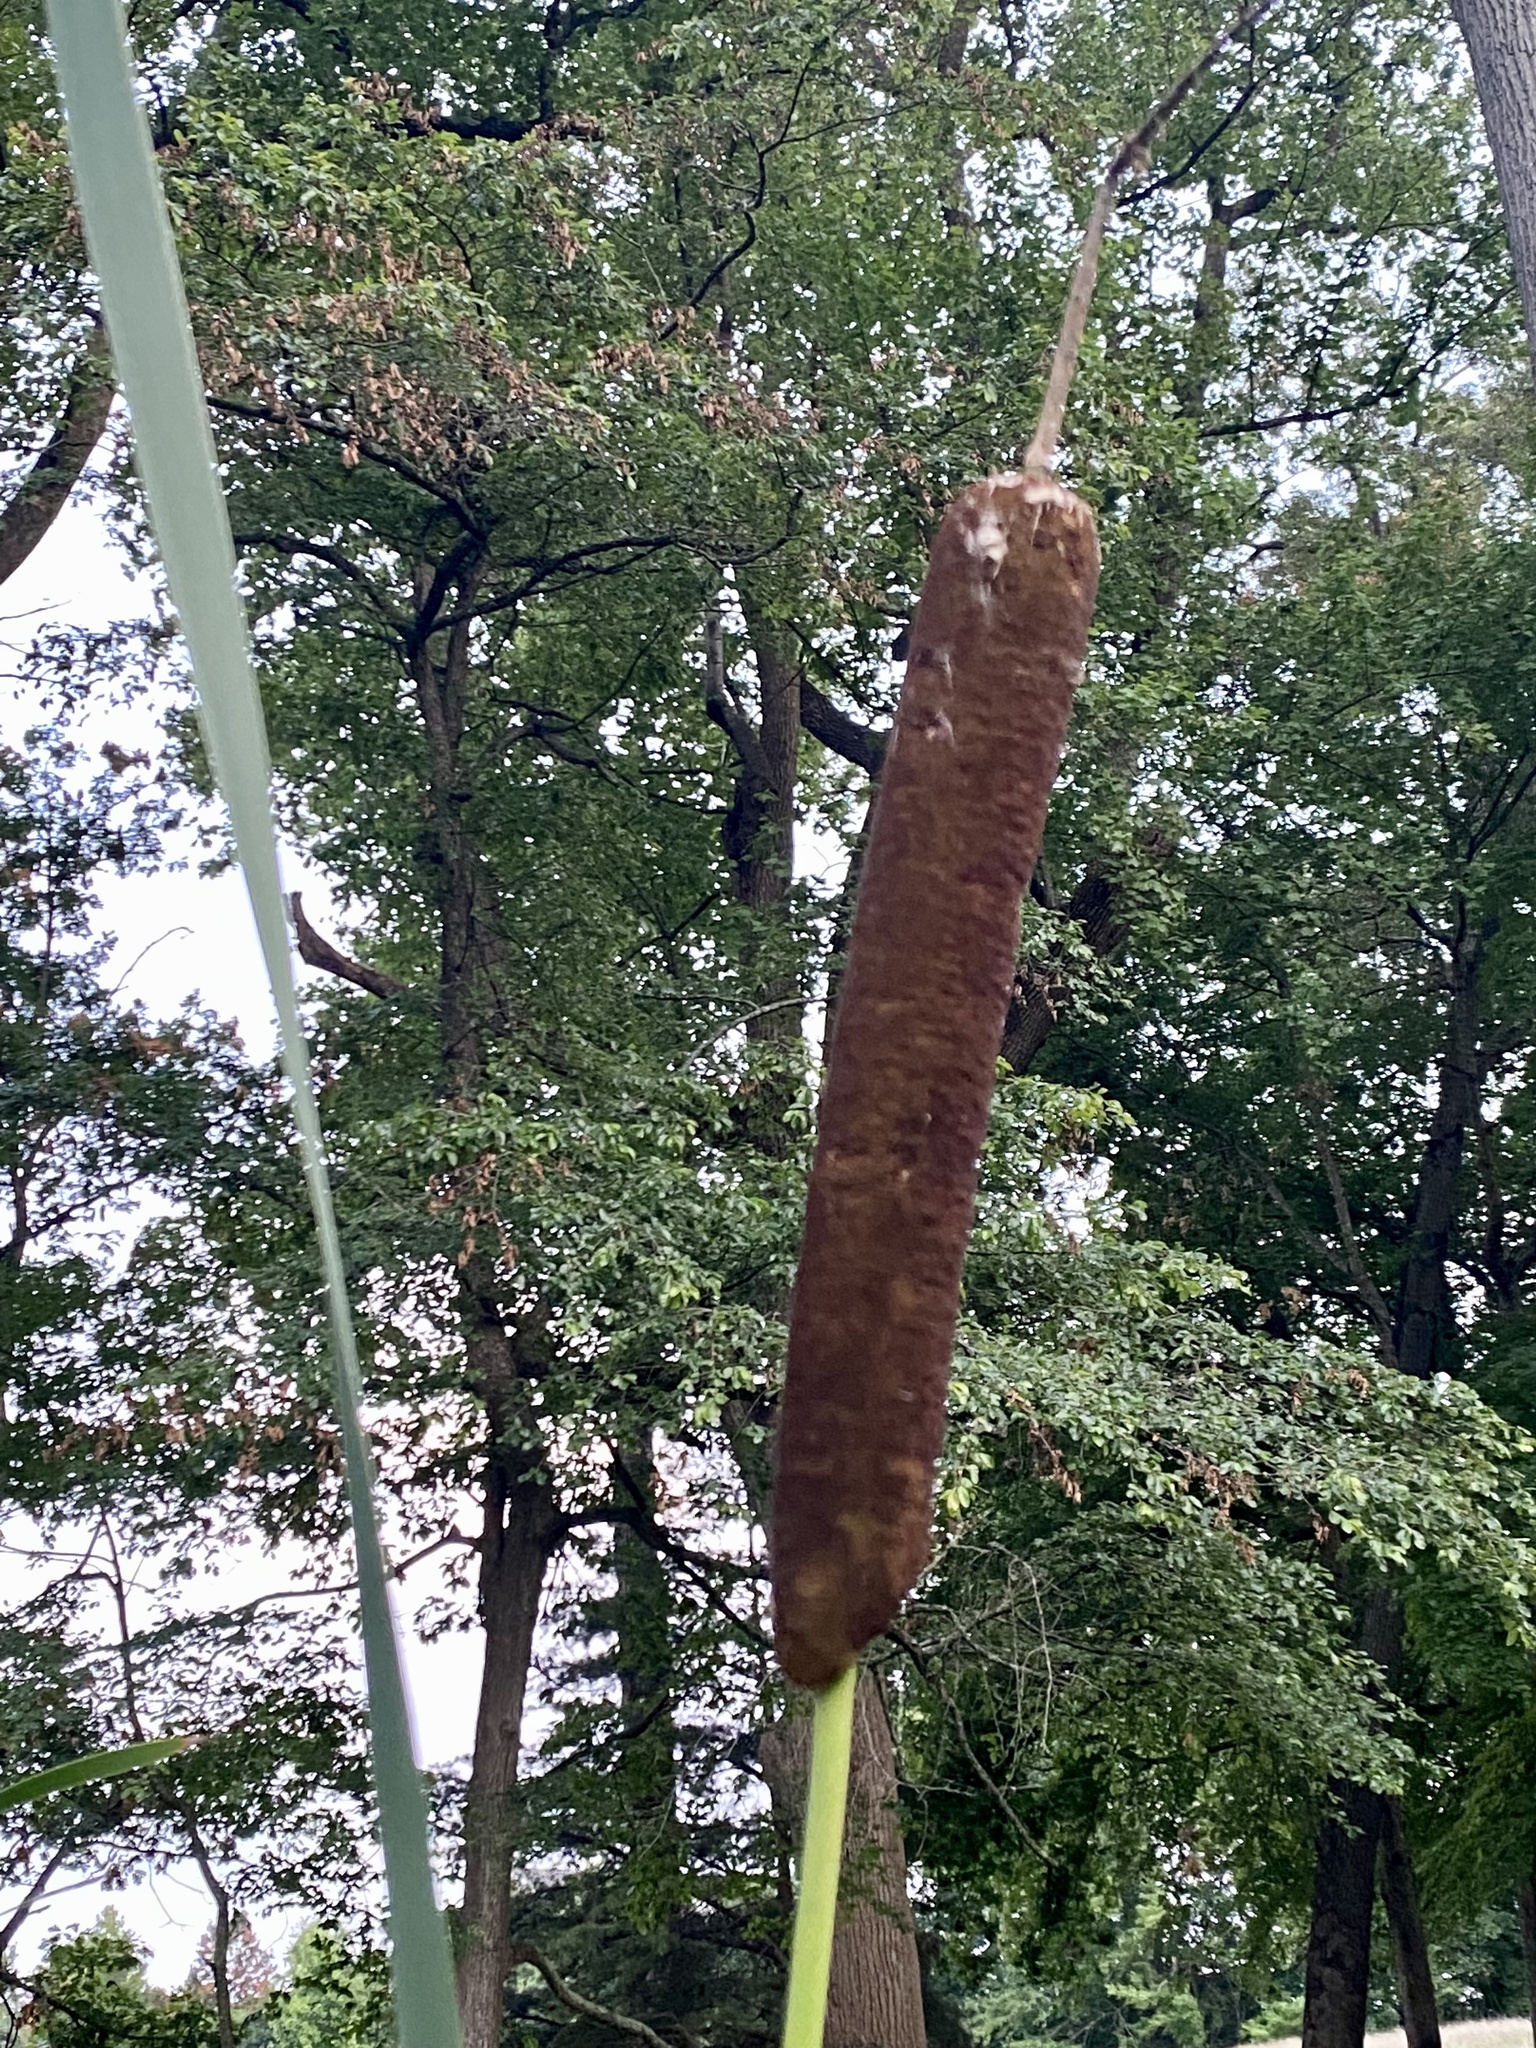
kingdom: Plantae
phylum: Tracheophyta
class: Liliopsida
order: Poales
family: Typhaceae
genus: Typha
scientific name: Typha latifolia
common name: Broadleaf cattail
